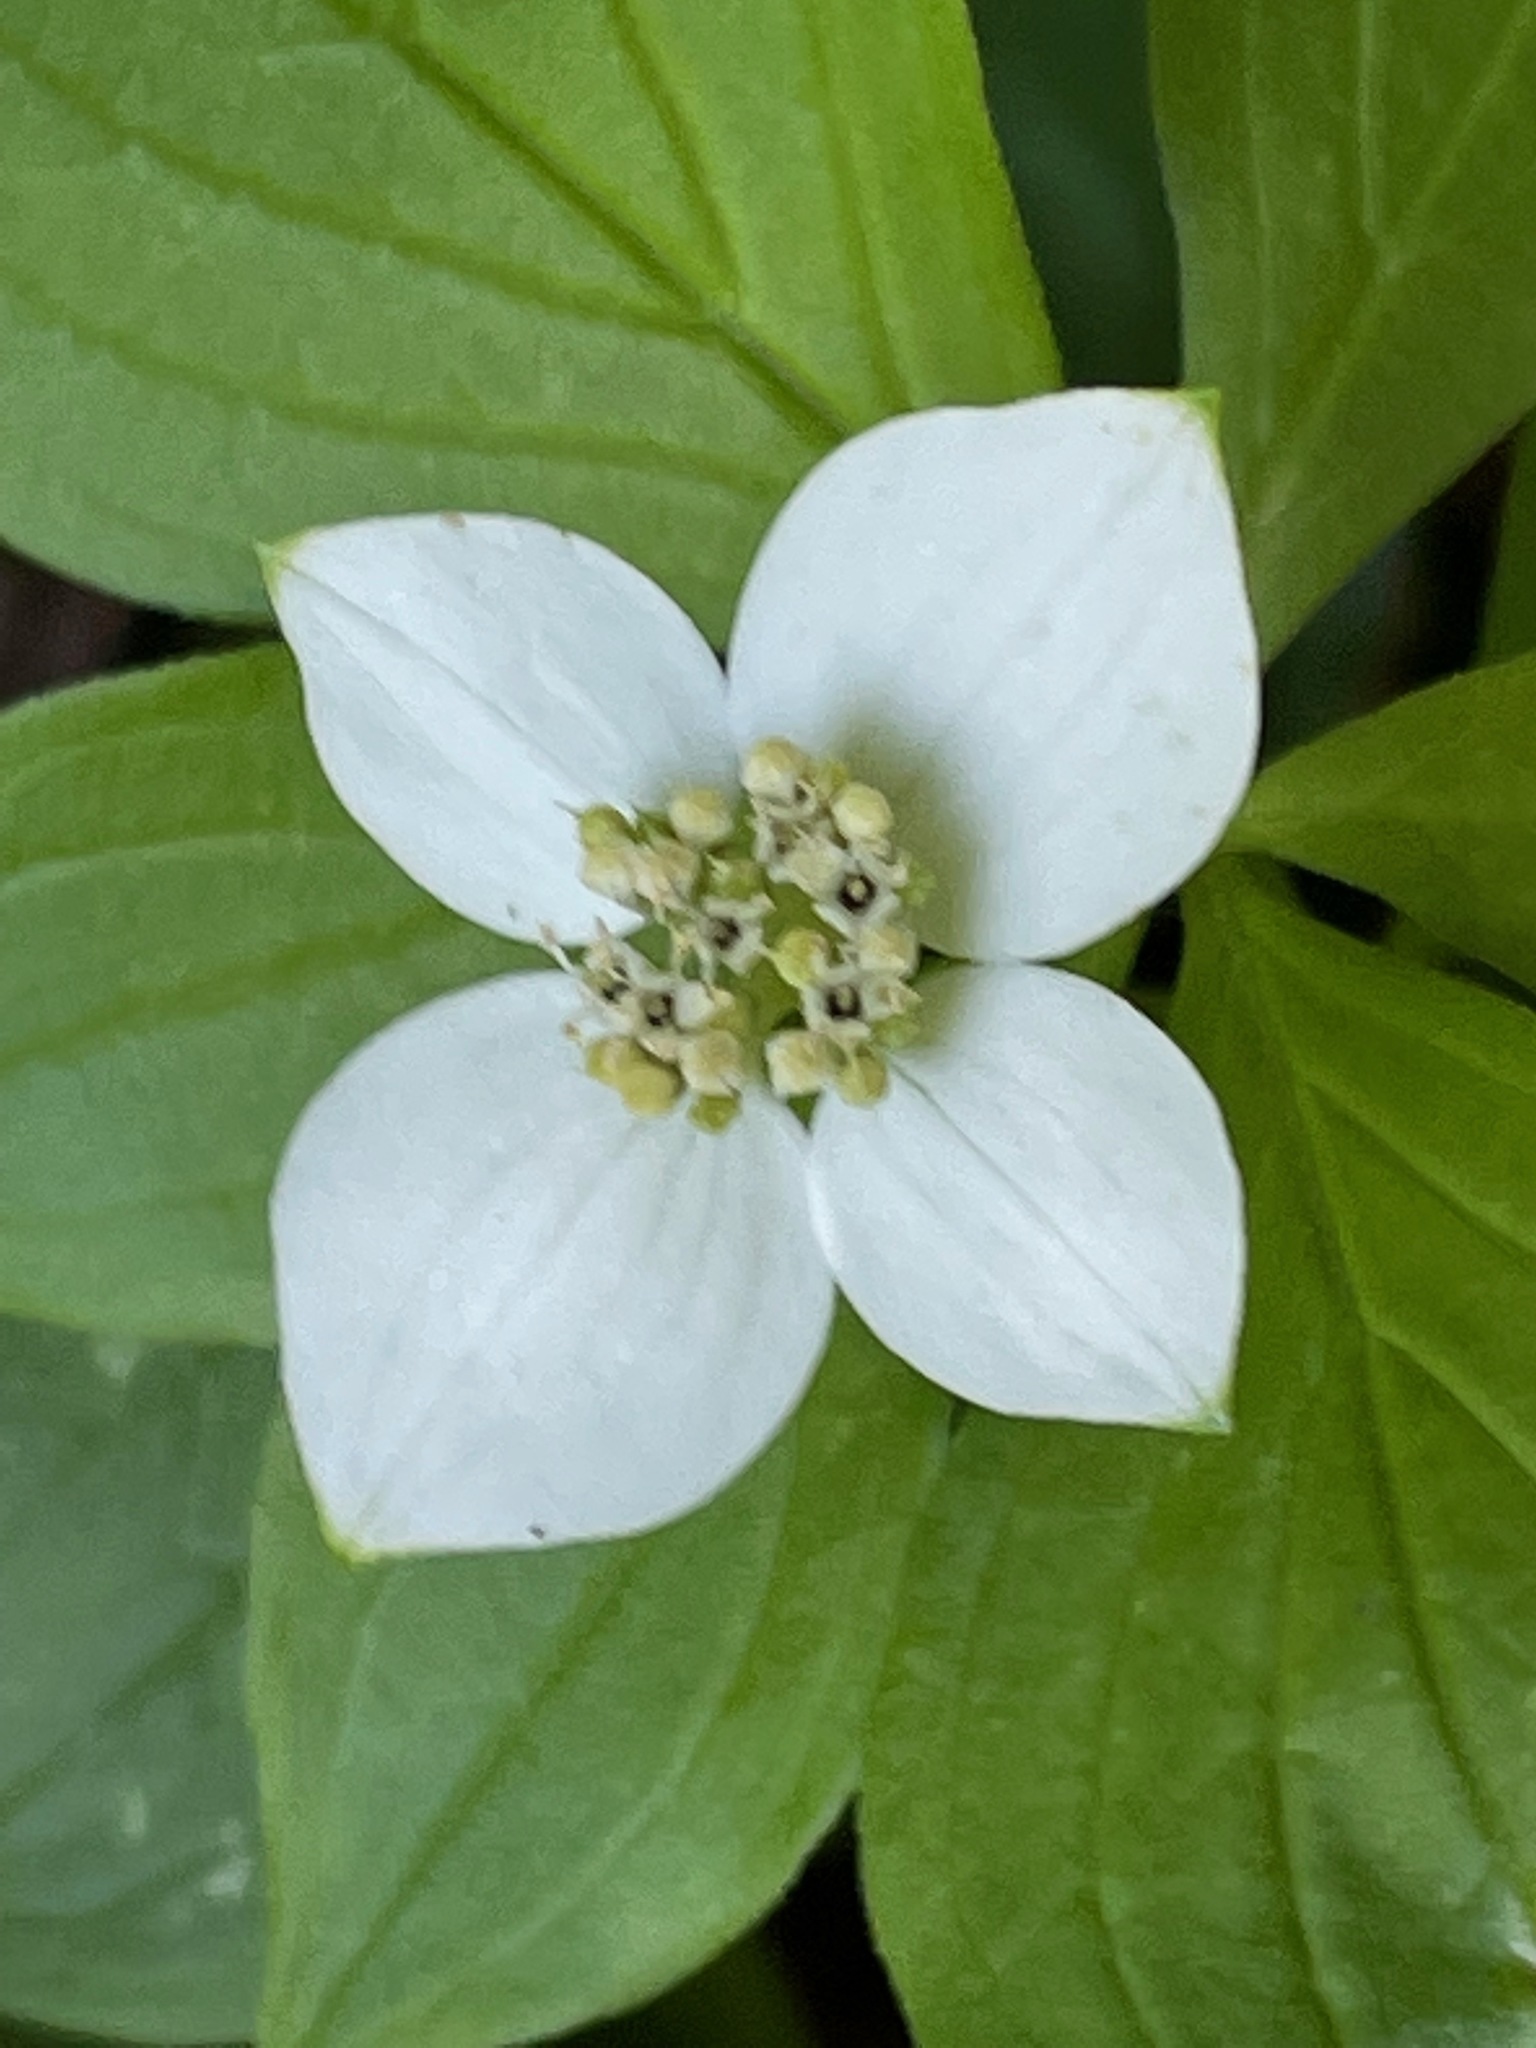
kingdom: Plantae
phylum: Tracheophyta
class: Magnoliopsida
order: Cornales
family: Cornaceae
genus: Cornus
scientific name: Cornus canadensis
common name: Creeping dogwood
